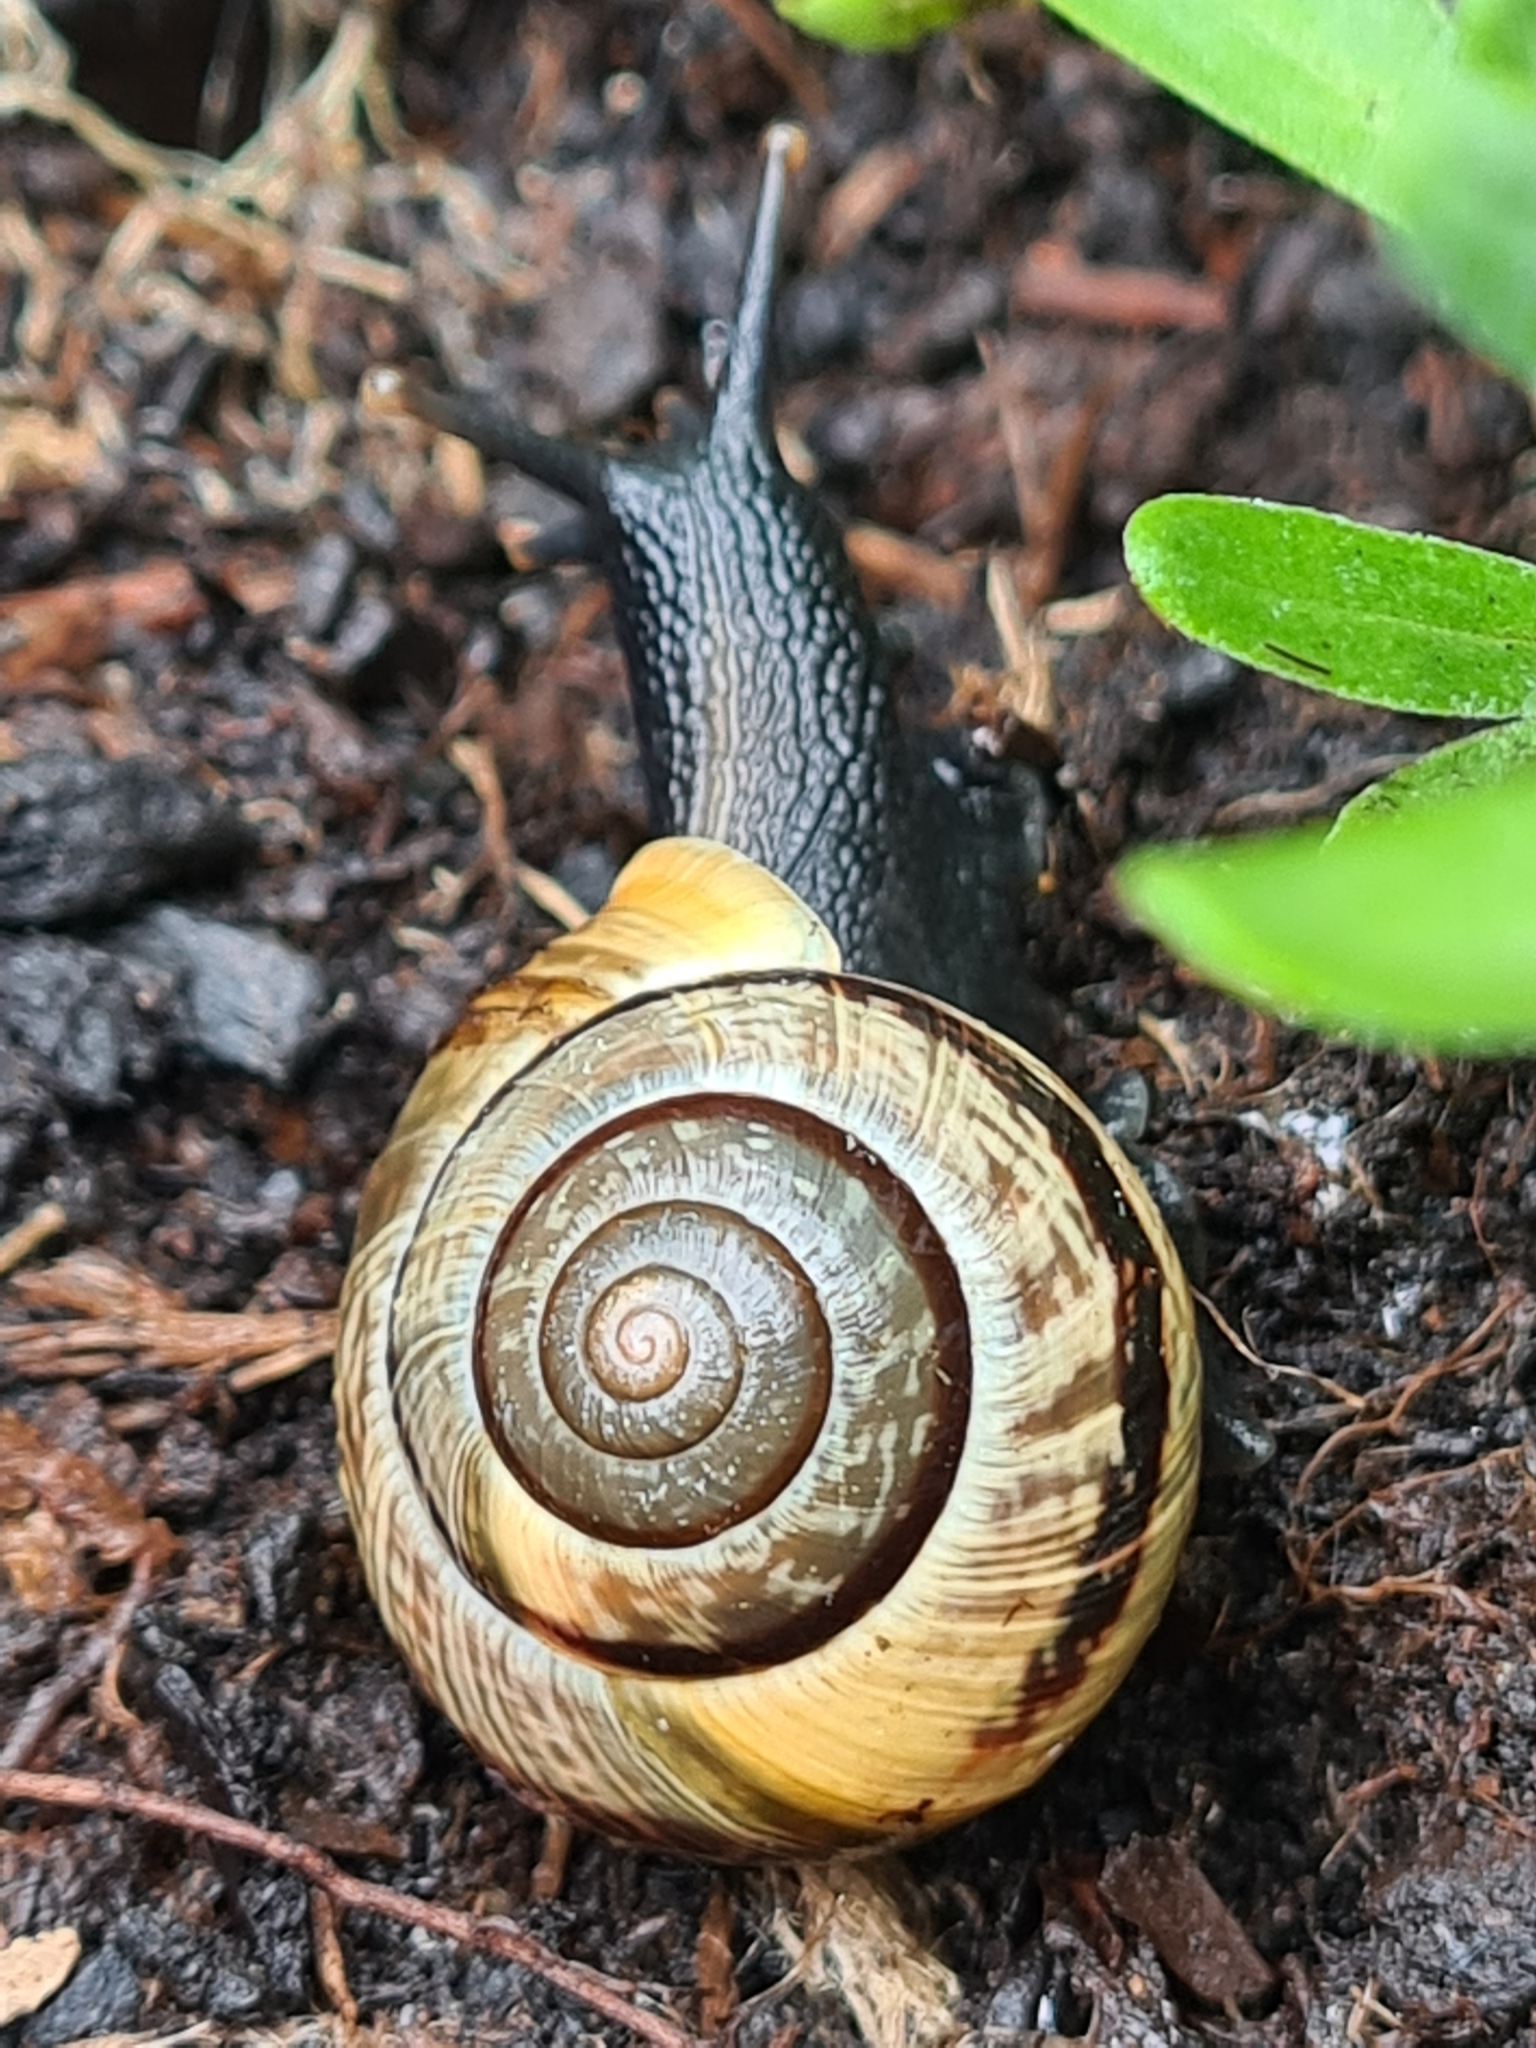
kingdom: Animalia
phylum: Mollusca
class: Gastropoda
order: Stylommatophora
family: Helicidae
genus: Arianta
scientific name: Arianta arbustorum
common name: Copse snail
